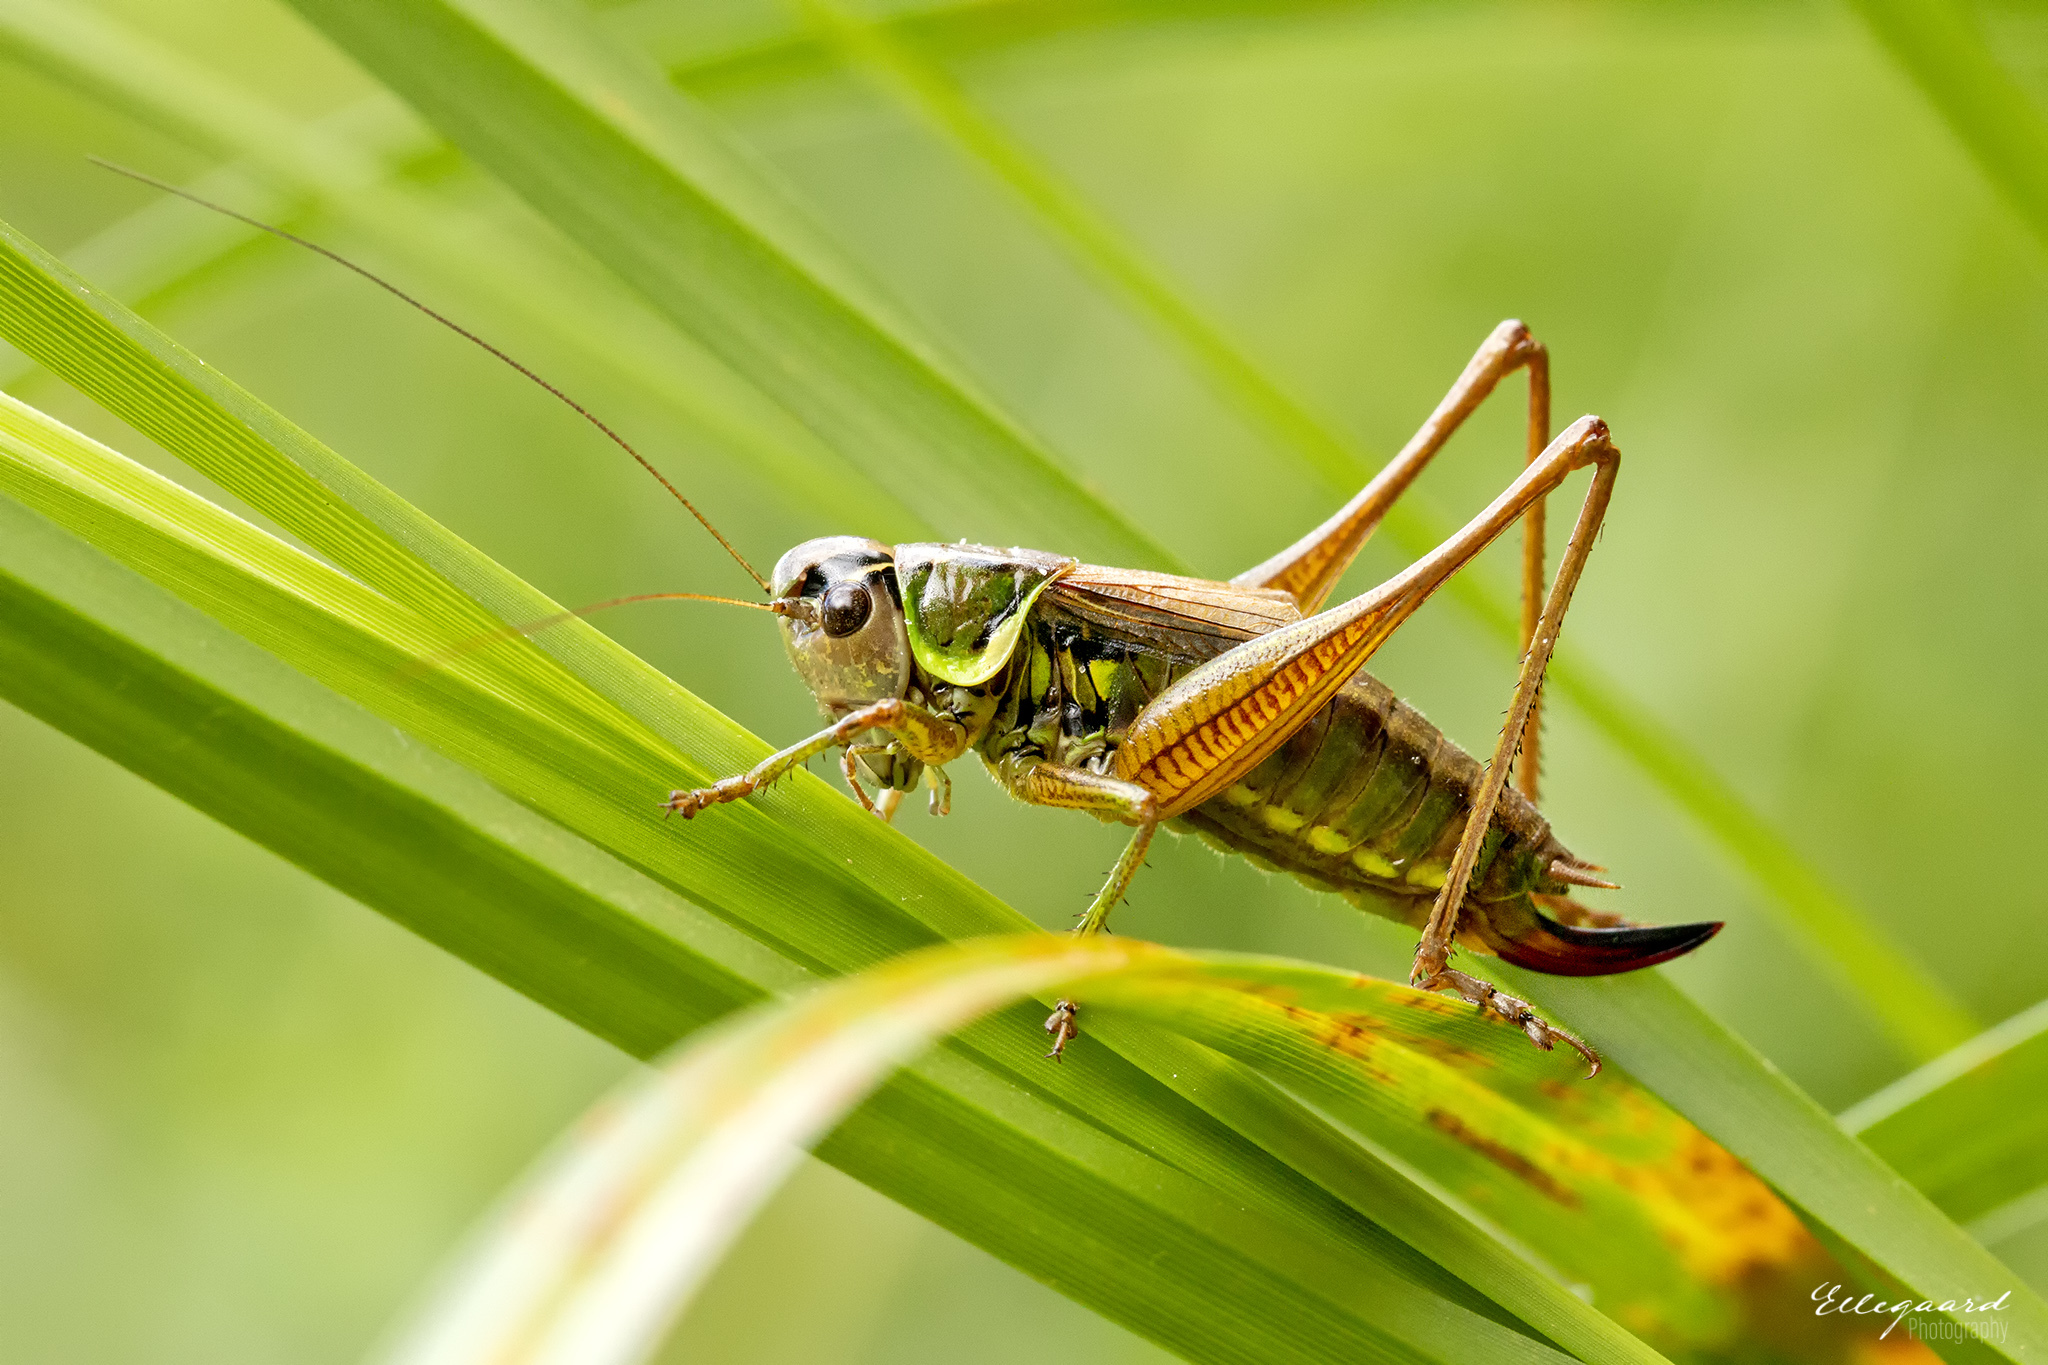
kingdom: Animalia
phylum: Arthropoda
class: Insecta
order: Orthoptera
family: Tettigoniidae
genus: Roeseliana
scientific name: Roeseliana roeselii
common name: Roesel's bush cricket
